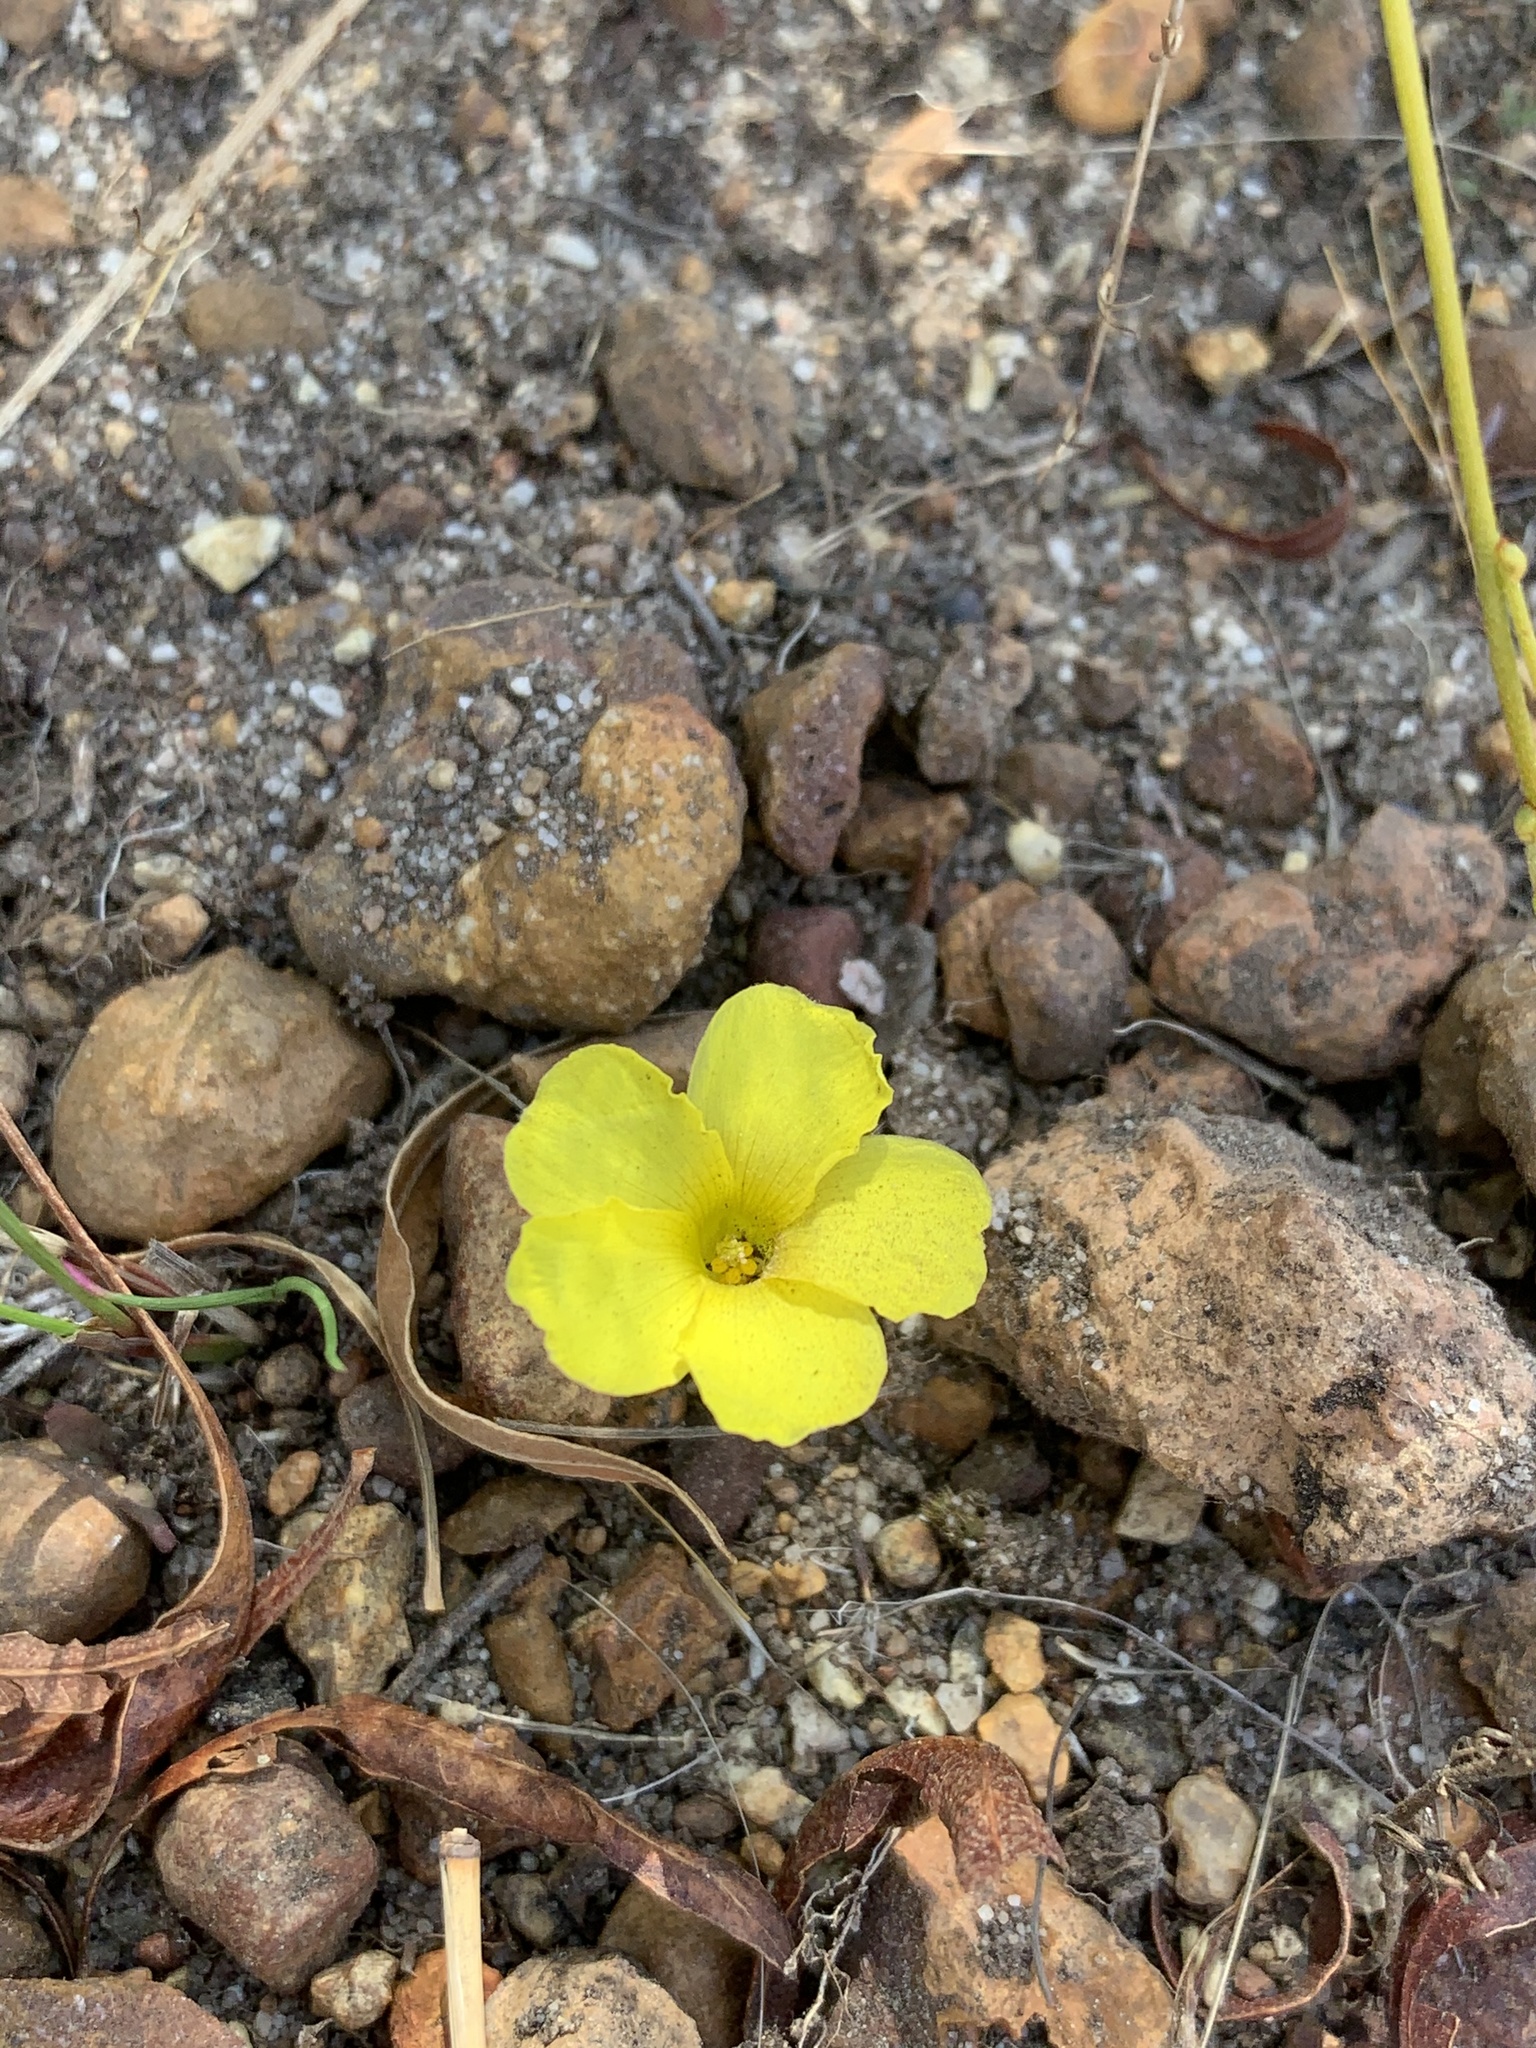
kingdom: Plantae
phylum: Tracheophyta
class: Magnoliopsida
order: Oxalidales
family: Oxalidaceae
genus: Oxalis
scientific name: Oxalis luteola
